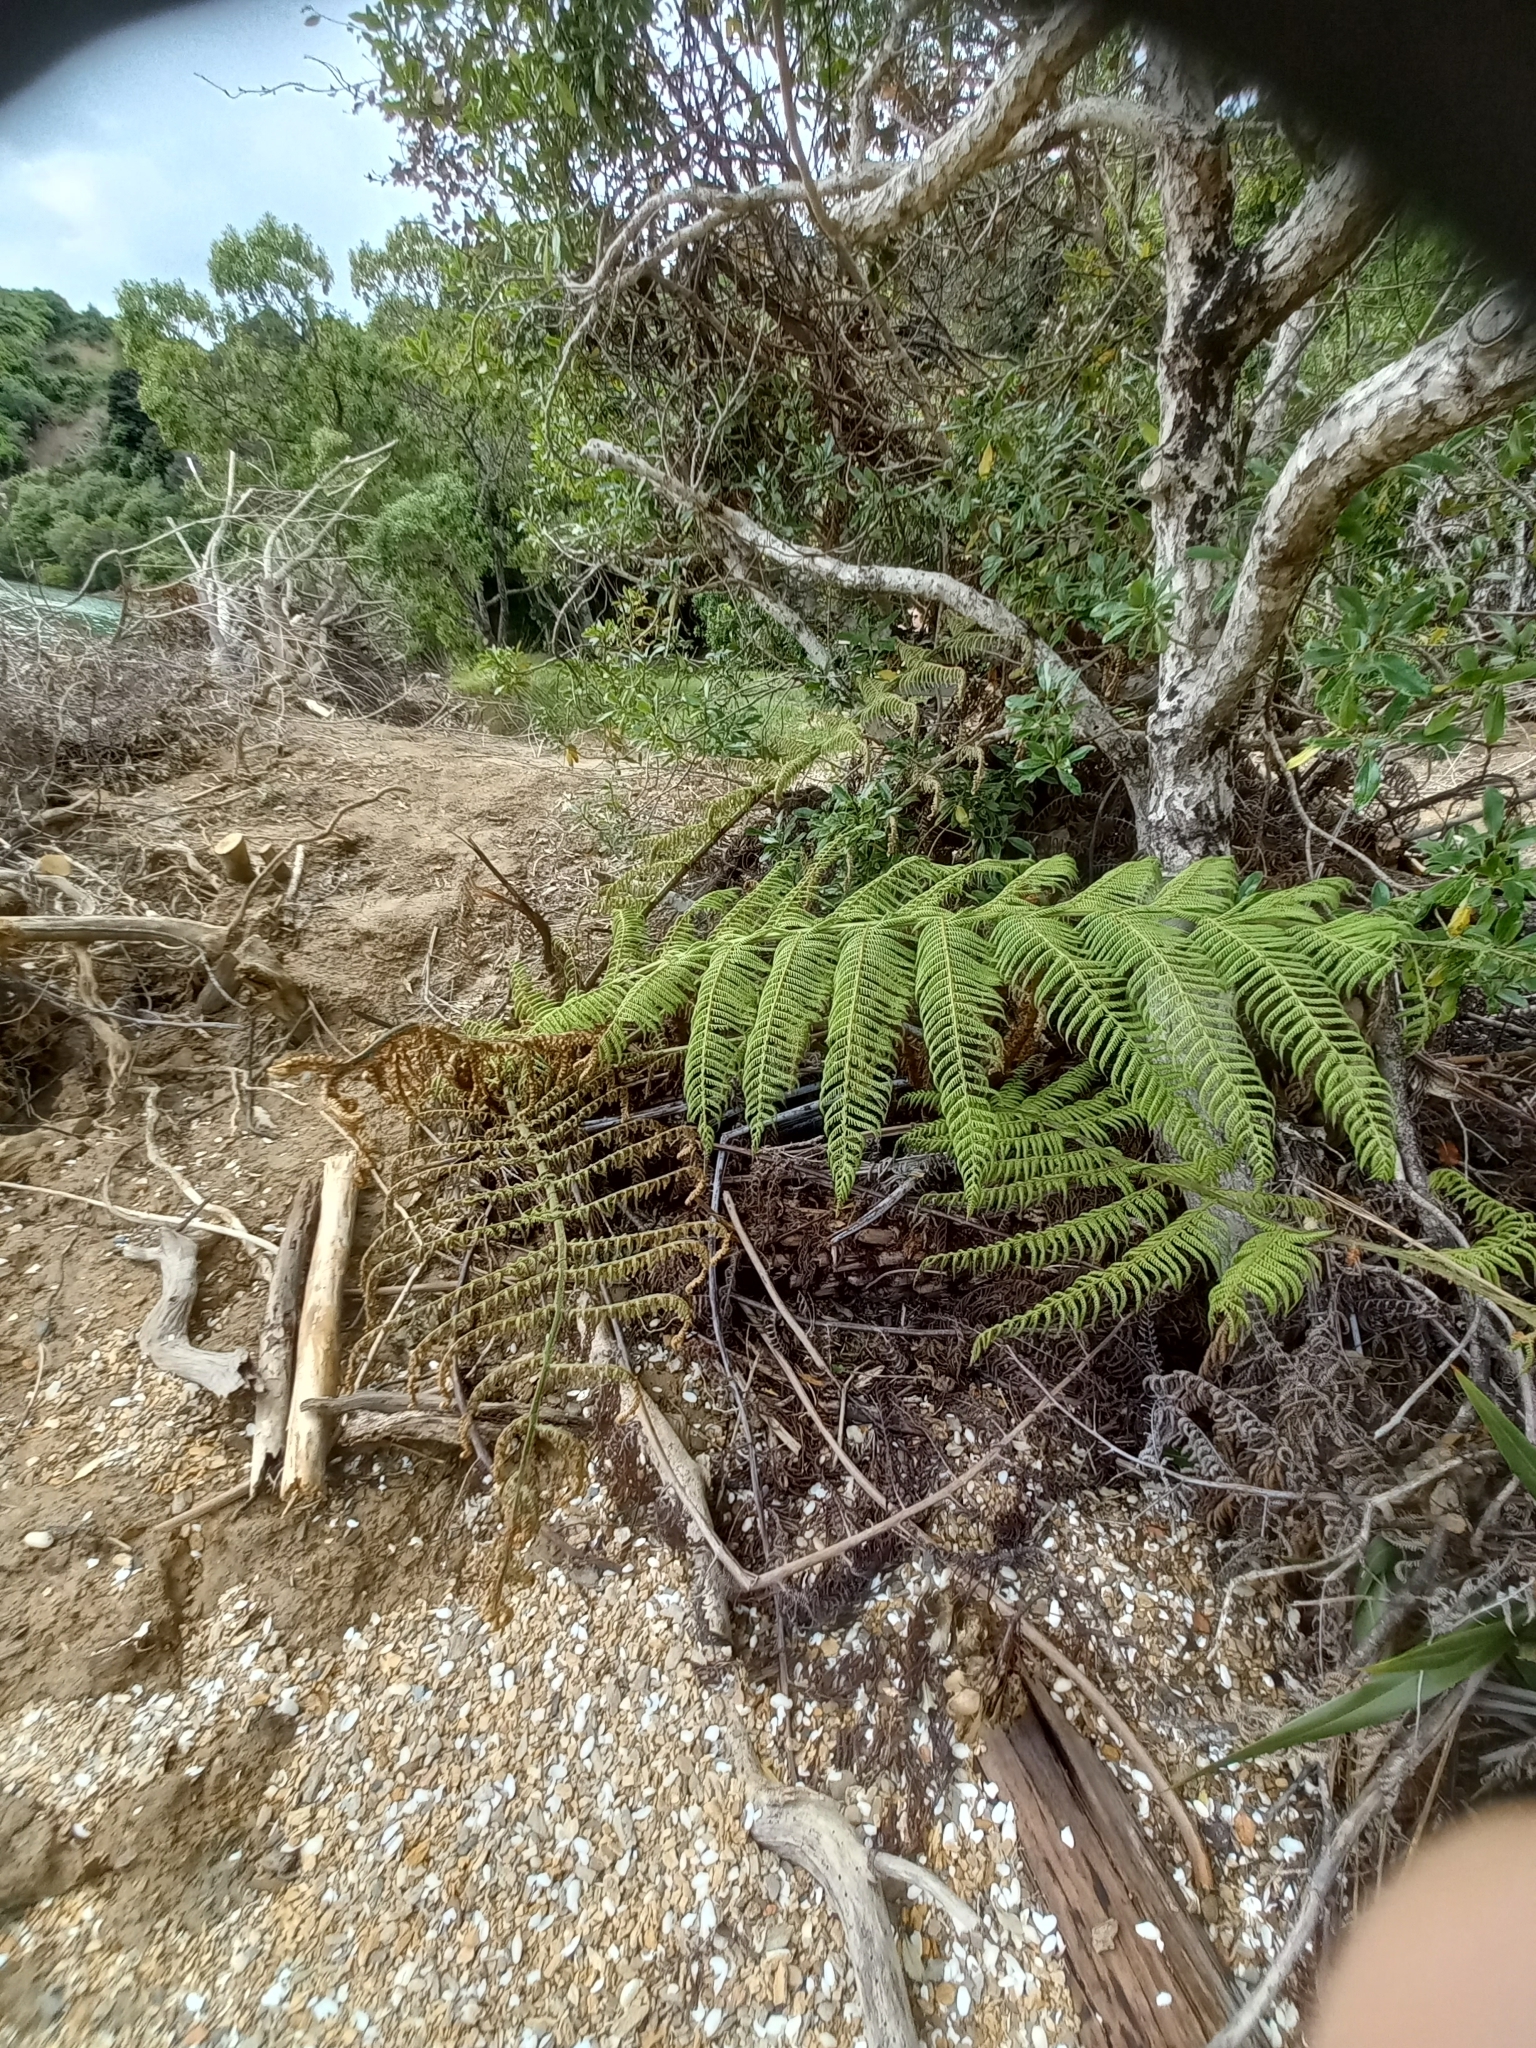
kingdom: Plantae
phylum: Tracheophyta
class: Polypodiopsida
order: Cyatheales
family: Cyatheaceae
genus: Alsophila
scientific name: Alsophila dealbata
